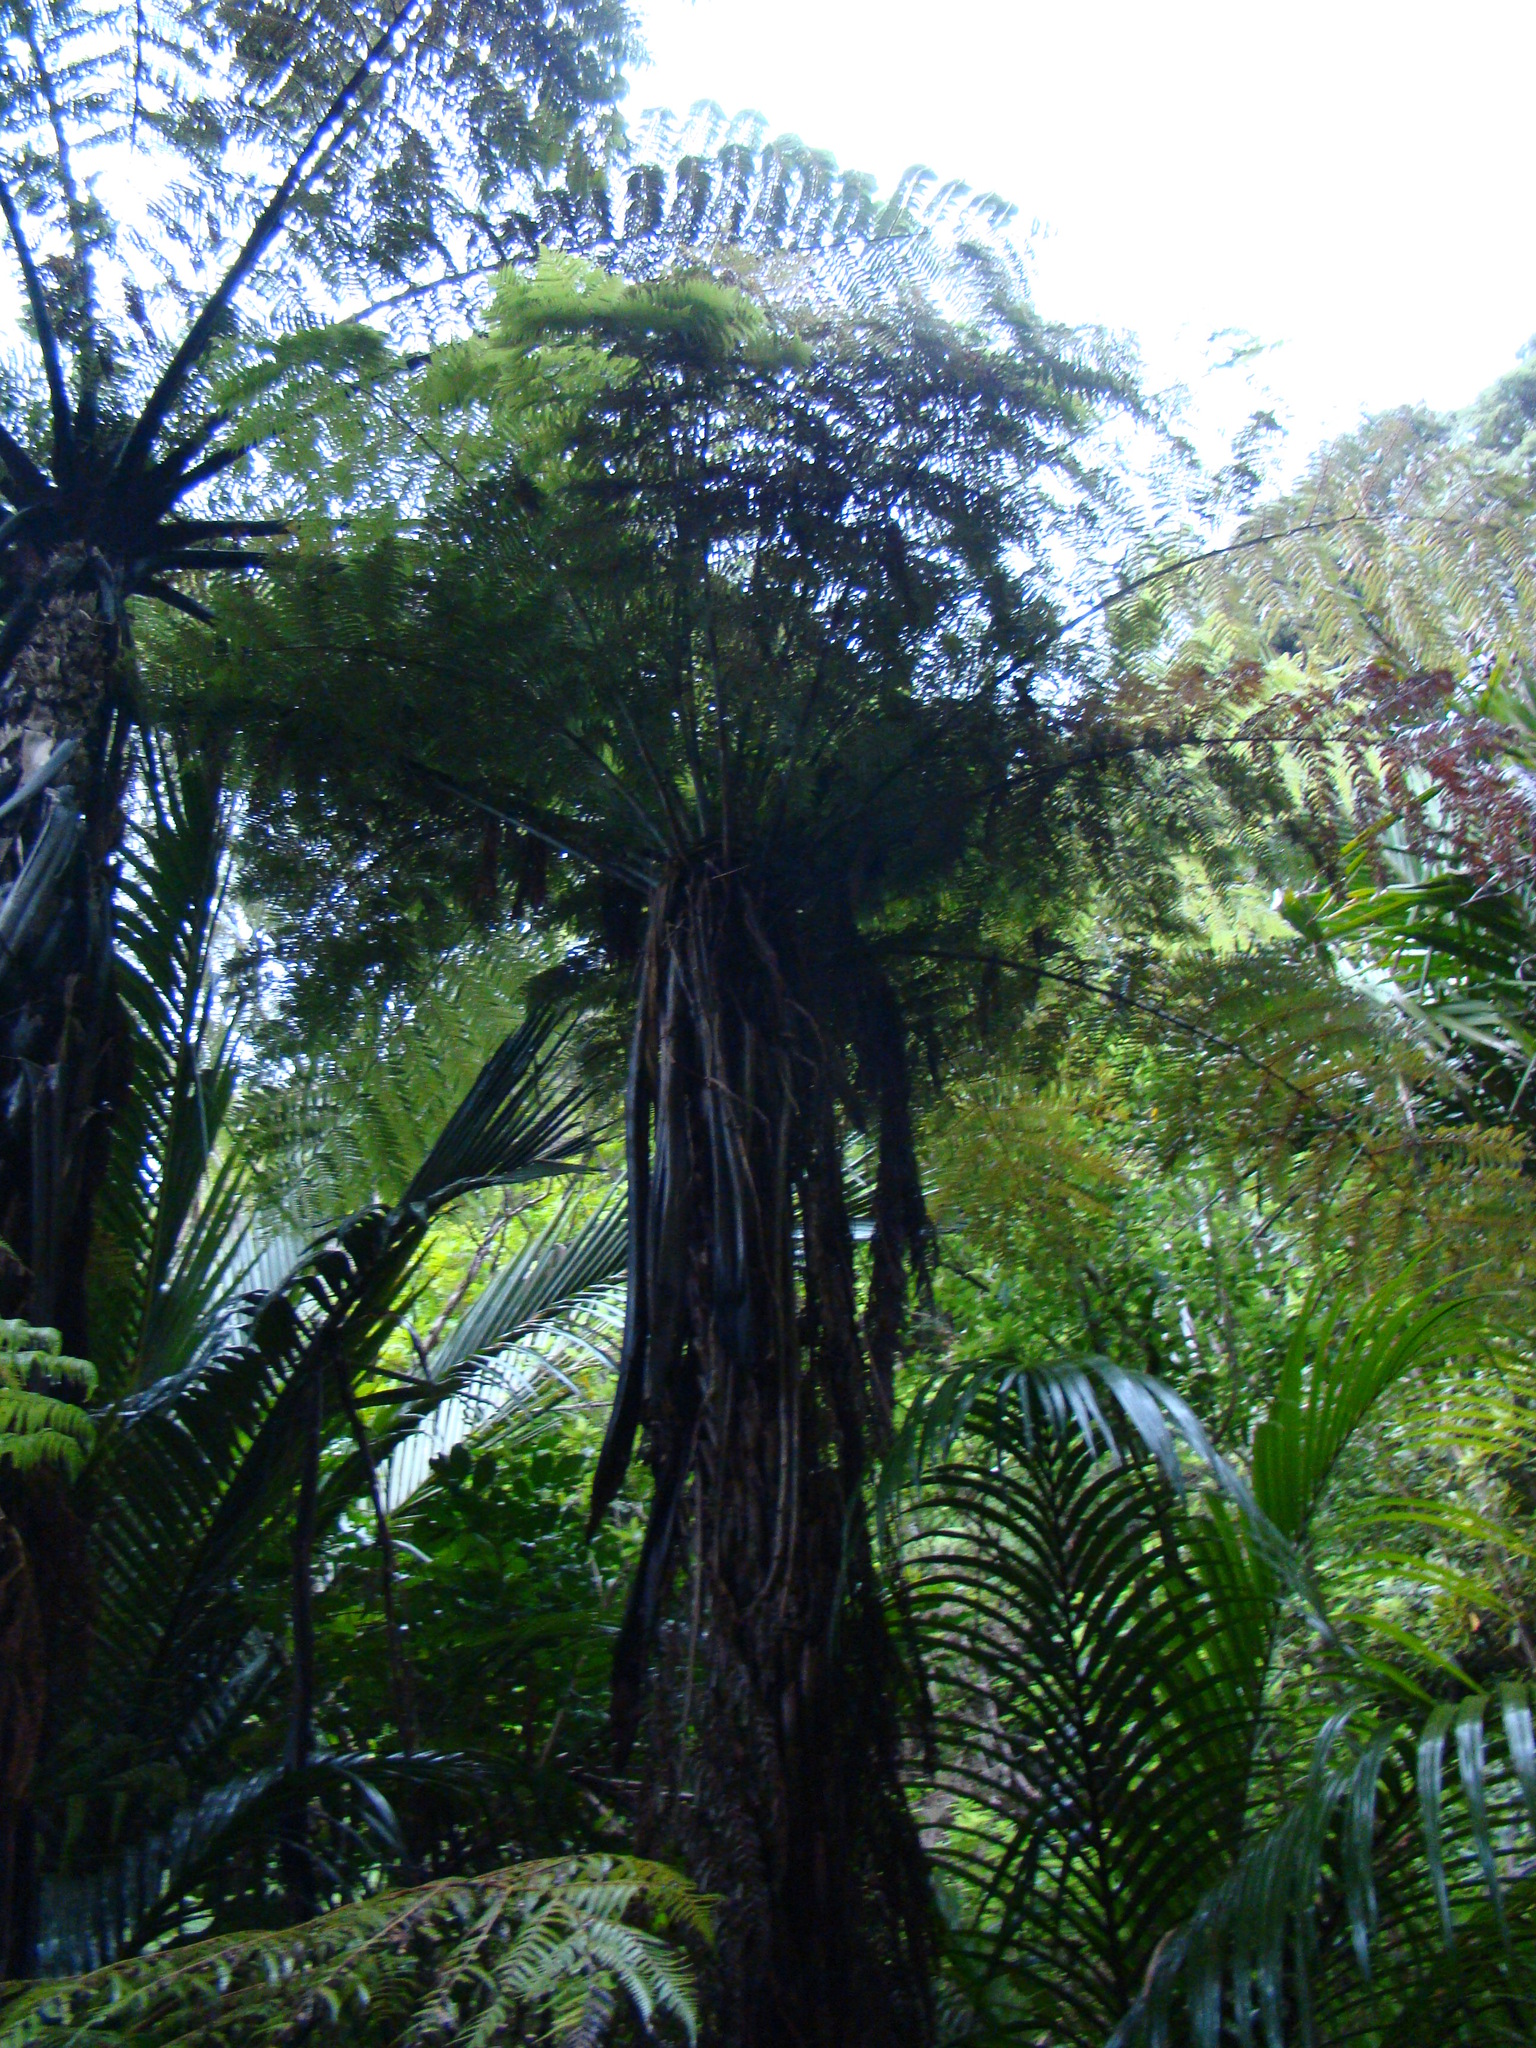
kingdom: Plantae
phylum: Tracheophyta
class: Polypodiopsida
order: Cyatheales
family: Cyatheaceae
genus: Sphaeropteris
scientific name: Sphaeropteris medullaris
